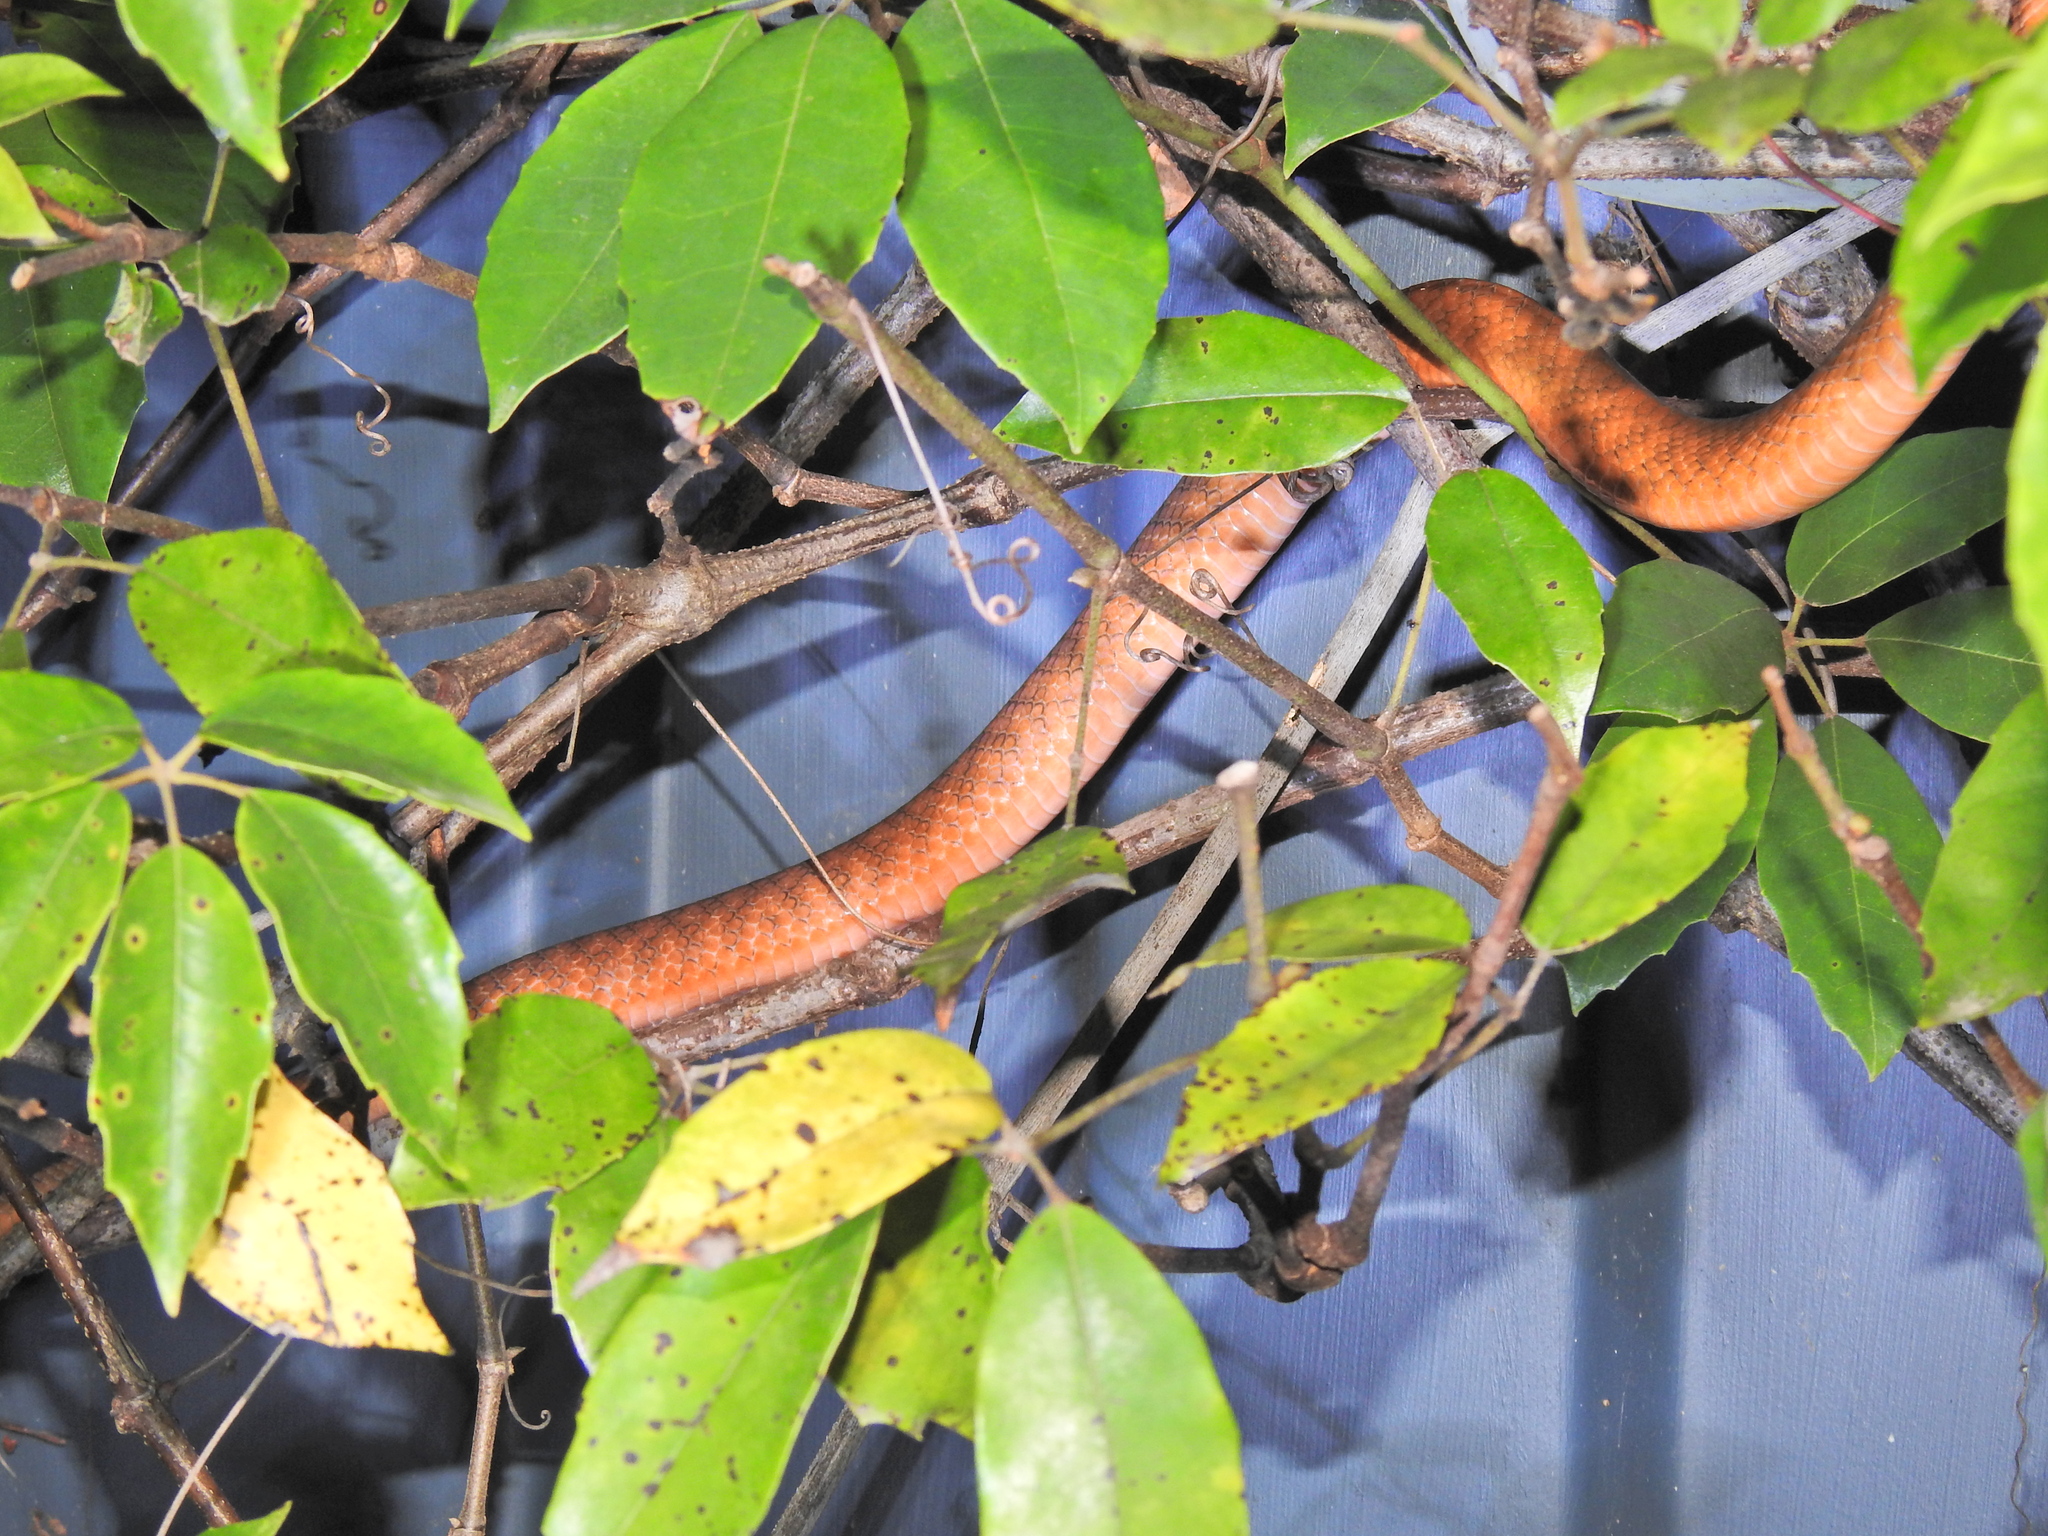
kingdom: Animalia
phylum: Chordata
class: Squamata
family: Colubridae
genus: Boiga
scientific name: Boiga irregularis
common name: Brown tree snake
